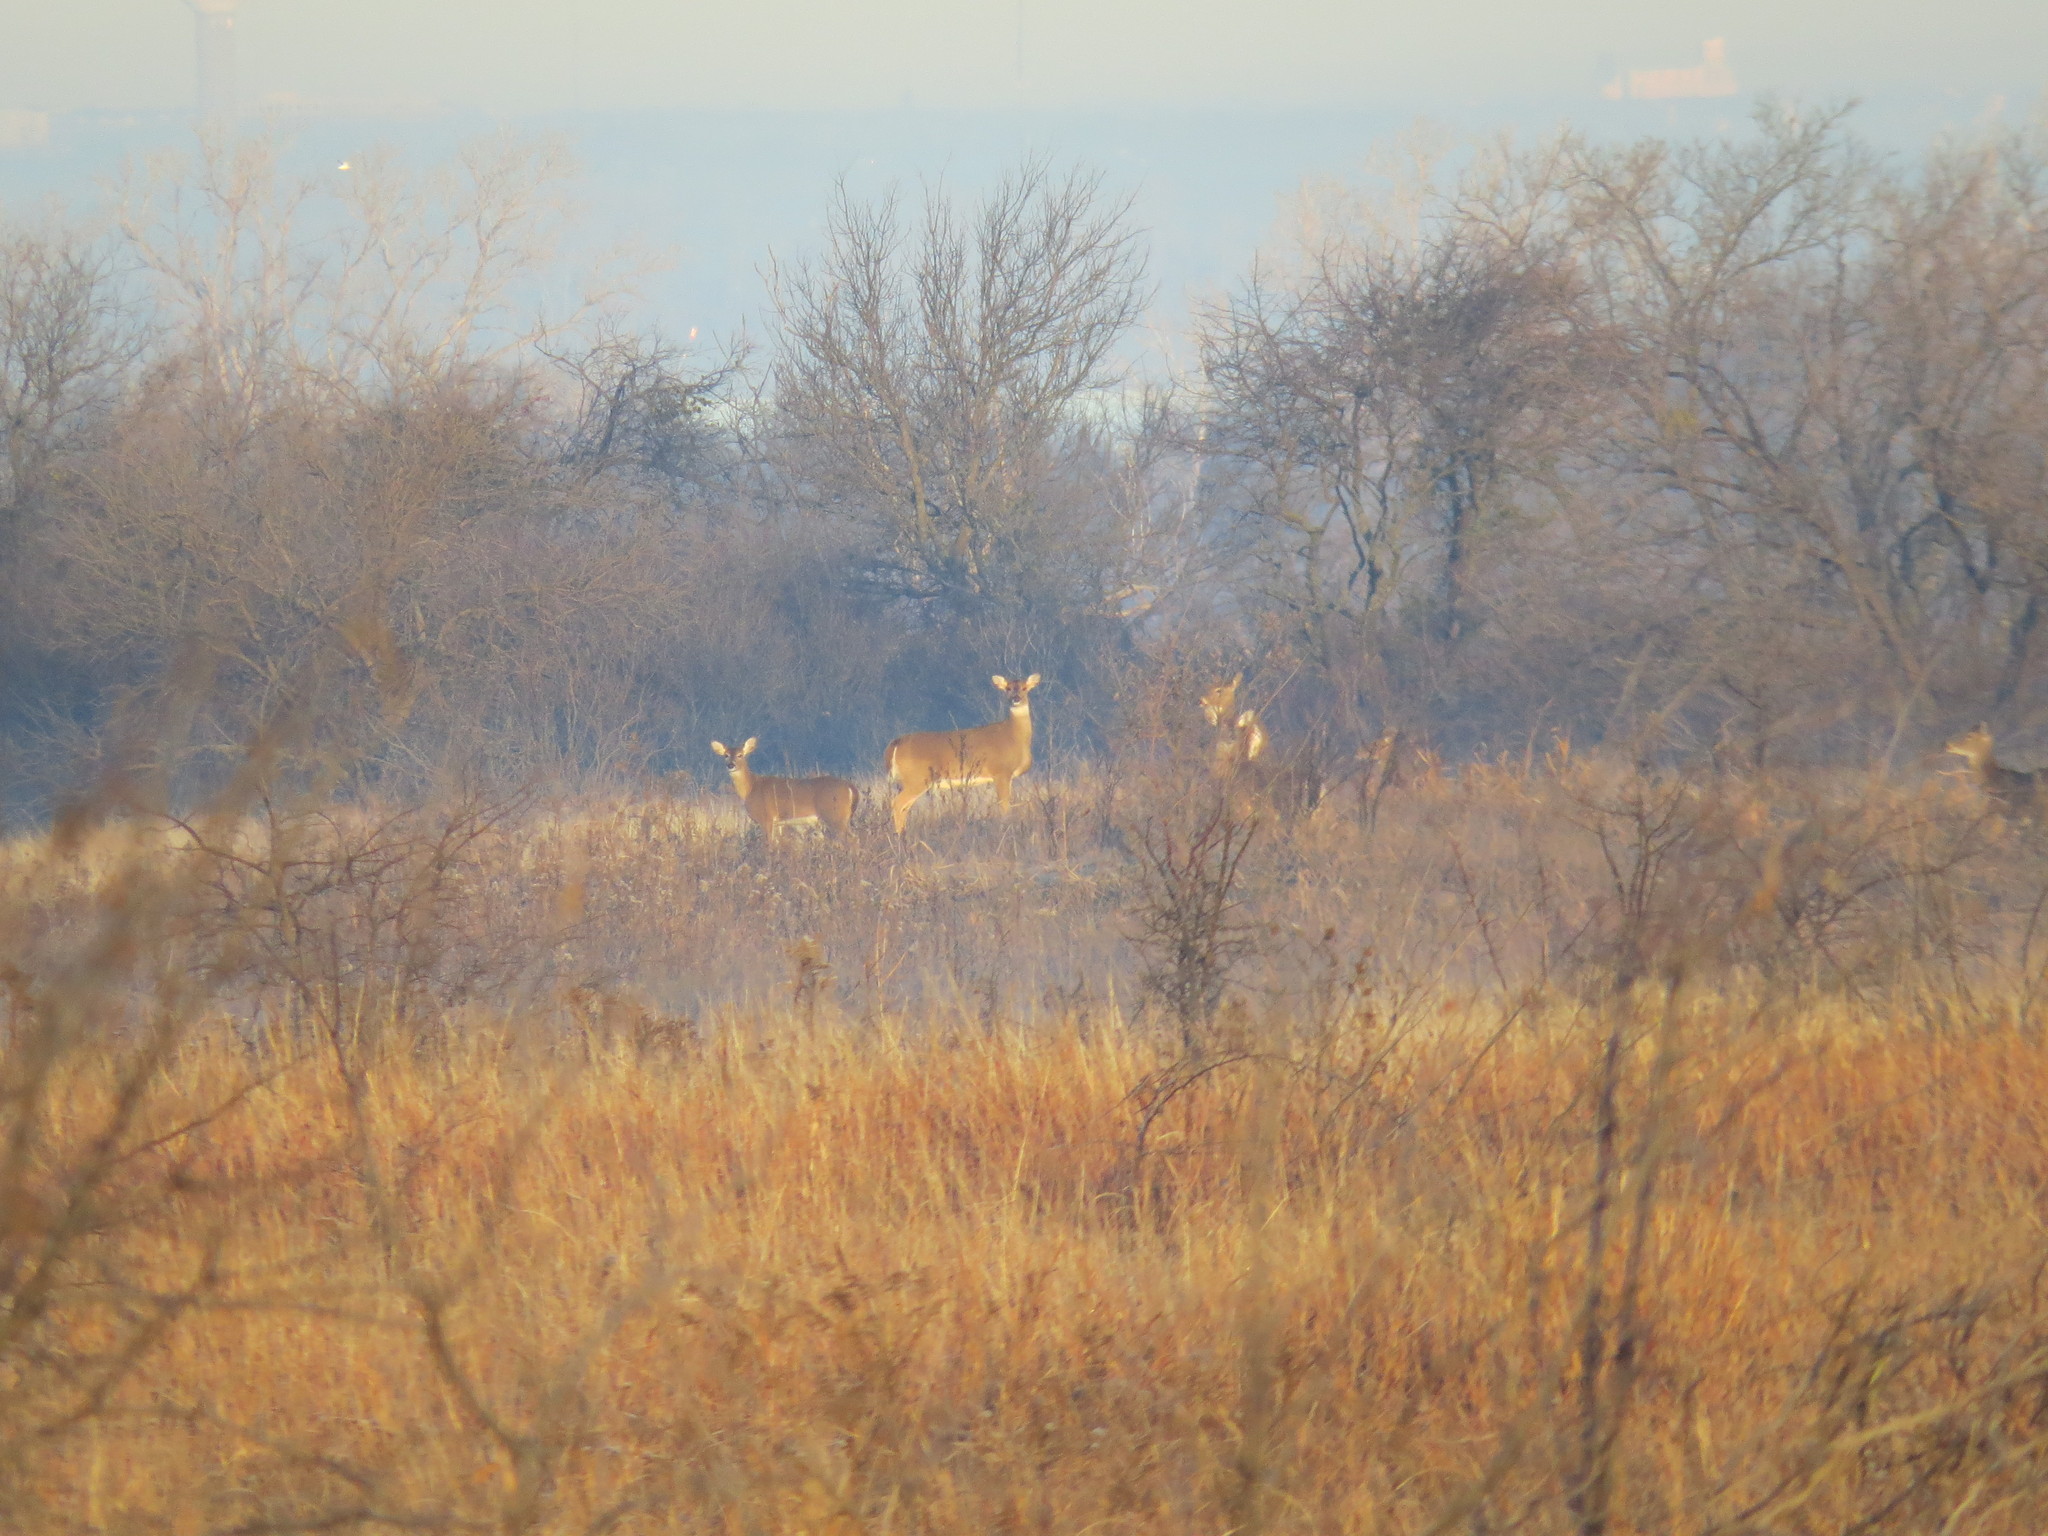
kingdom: Animalia
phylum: Chordata
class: Mammalia
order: Artiodactyla
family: Cervidae
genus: Odocoileus
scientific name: Odocoileus virginianus
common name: White-tailed deer
